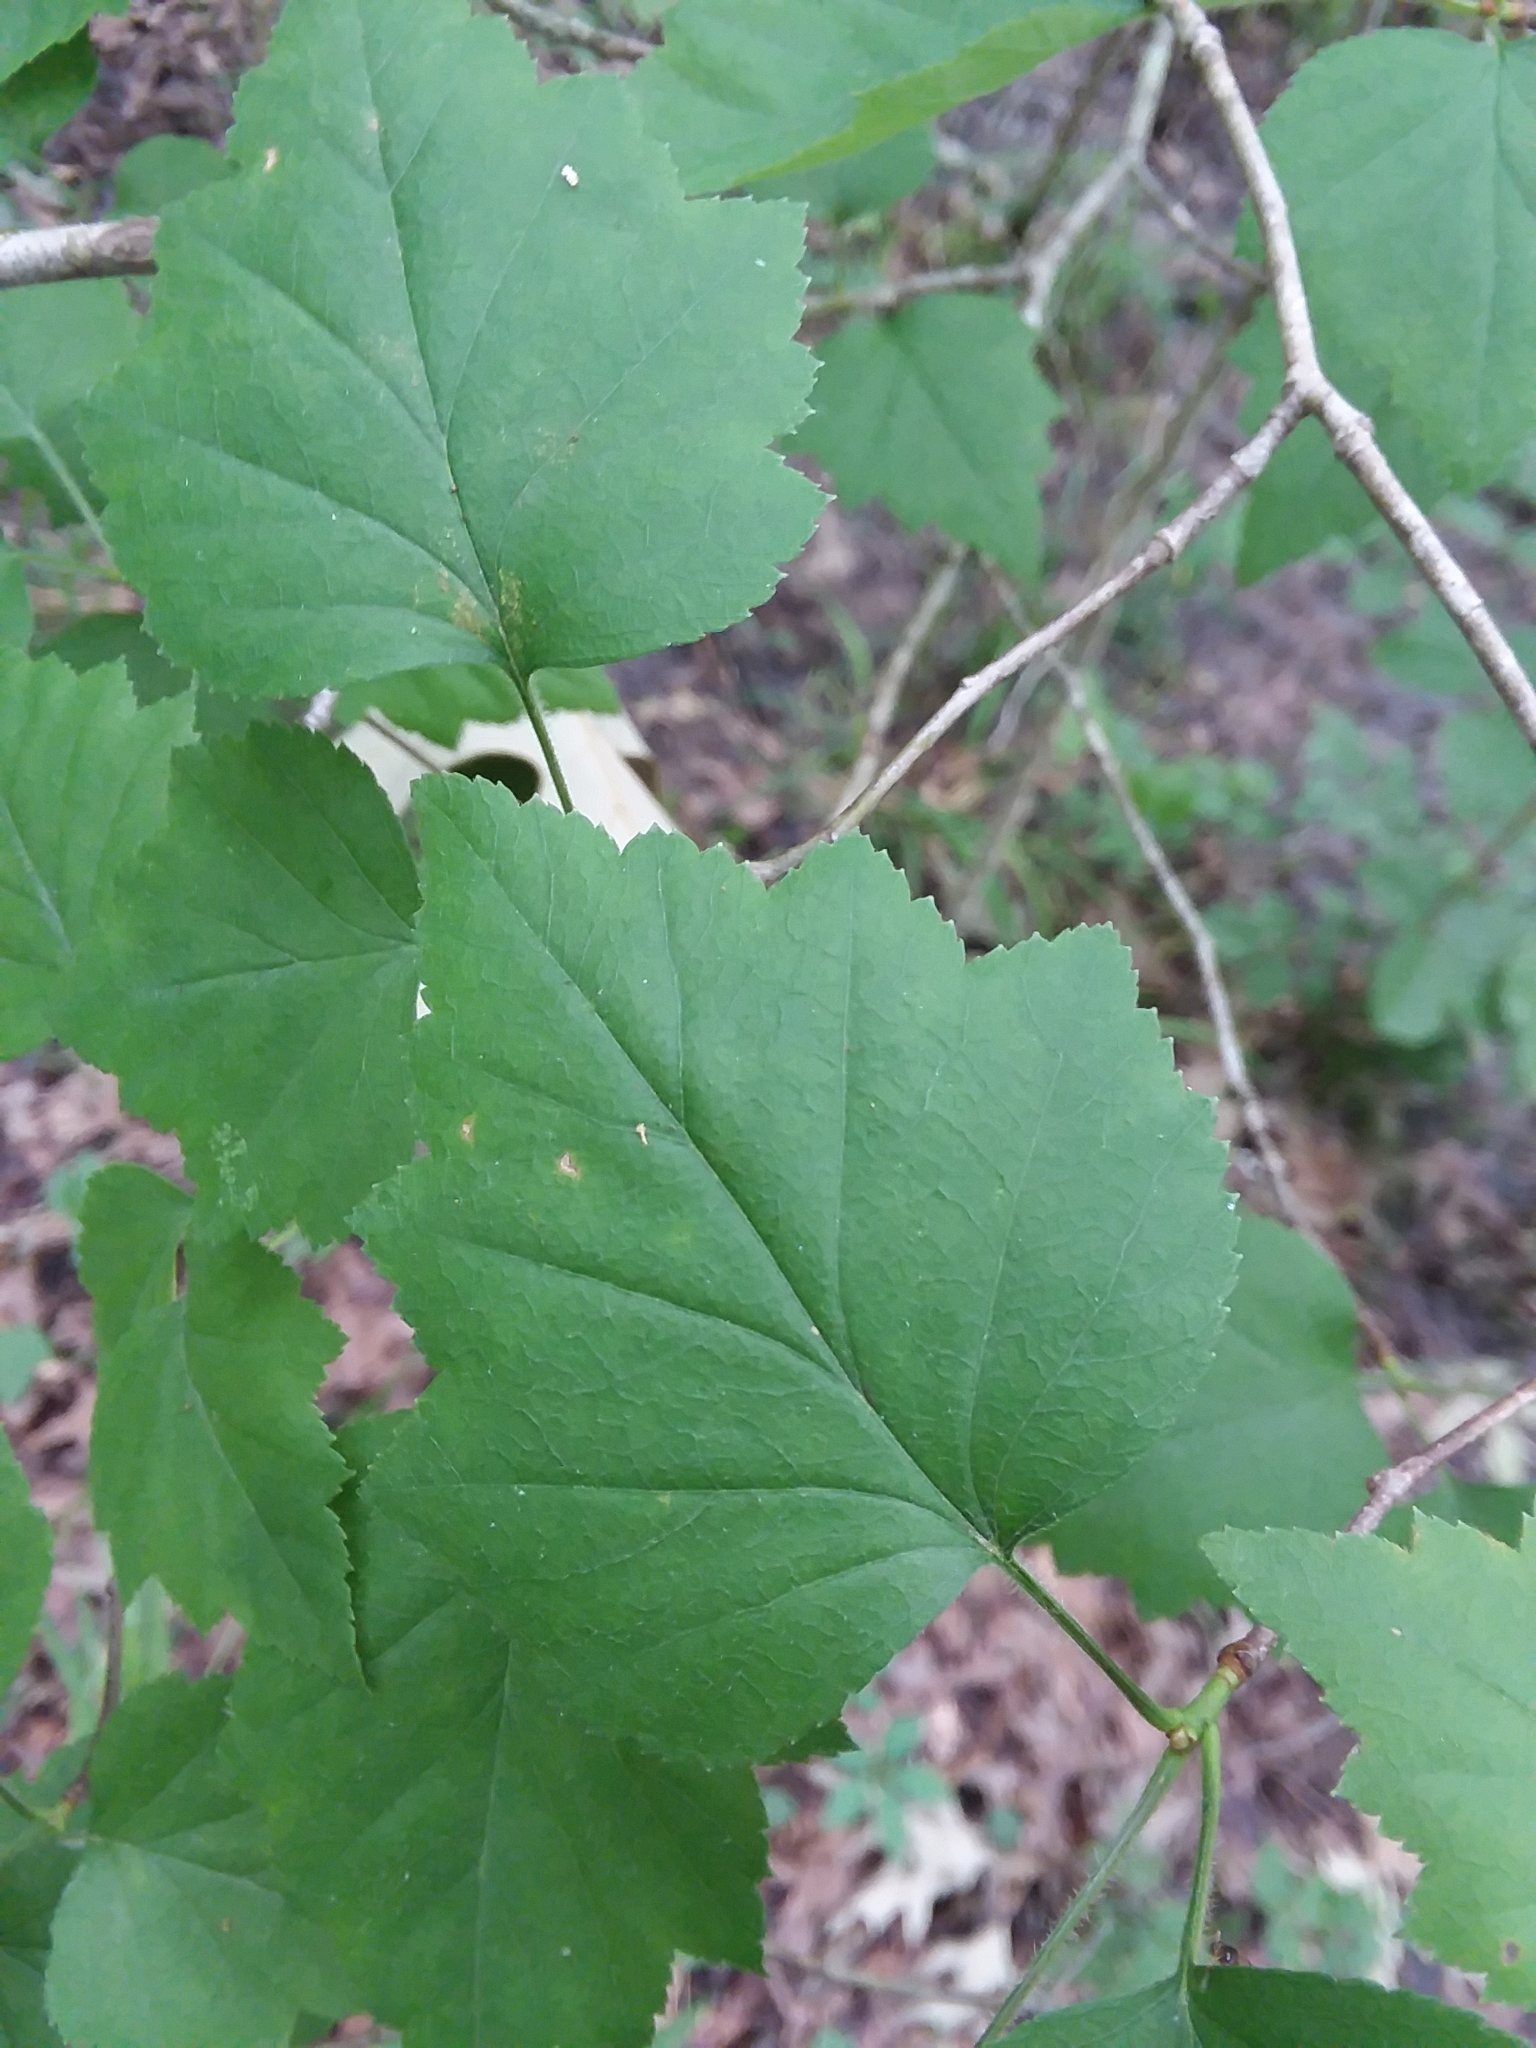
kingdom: Plantae
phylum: Tracheophyta
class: Magnoliopsida
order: Rosales
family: Rosaceae
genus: Crataegus
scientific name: Crataegus iracunda
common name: Stolon-bearing hawthorn
